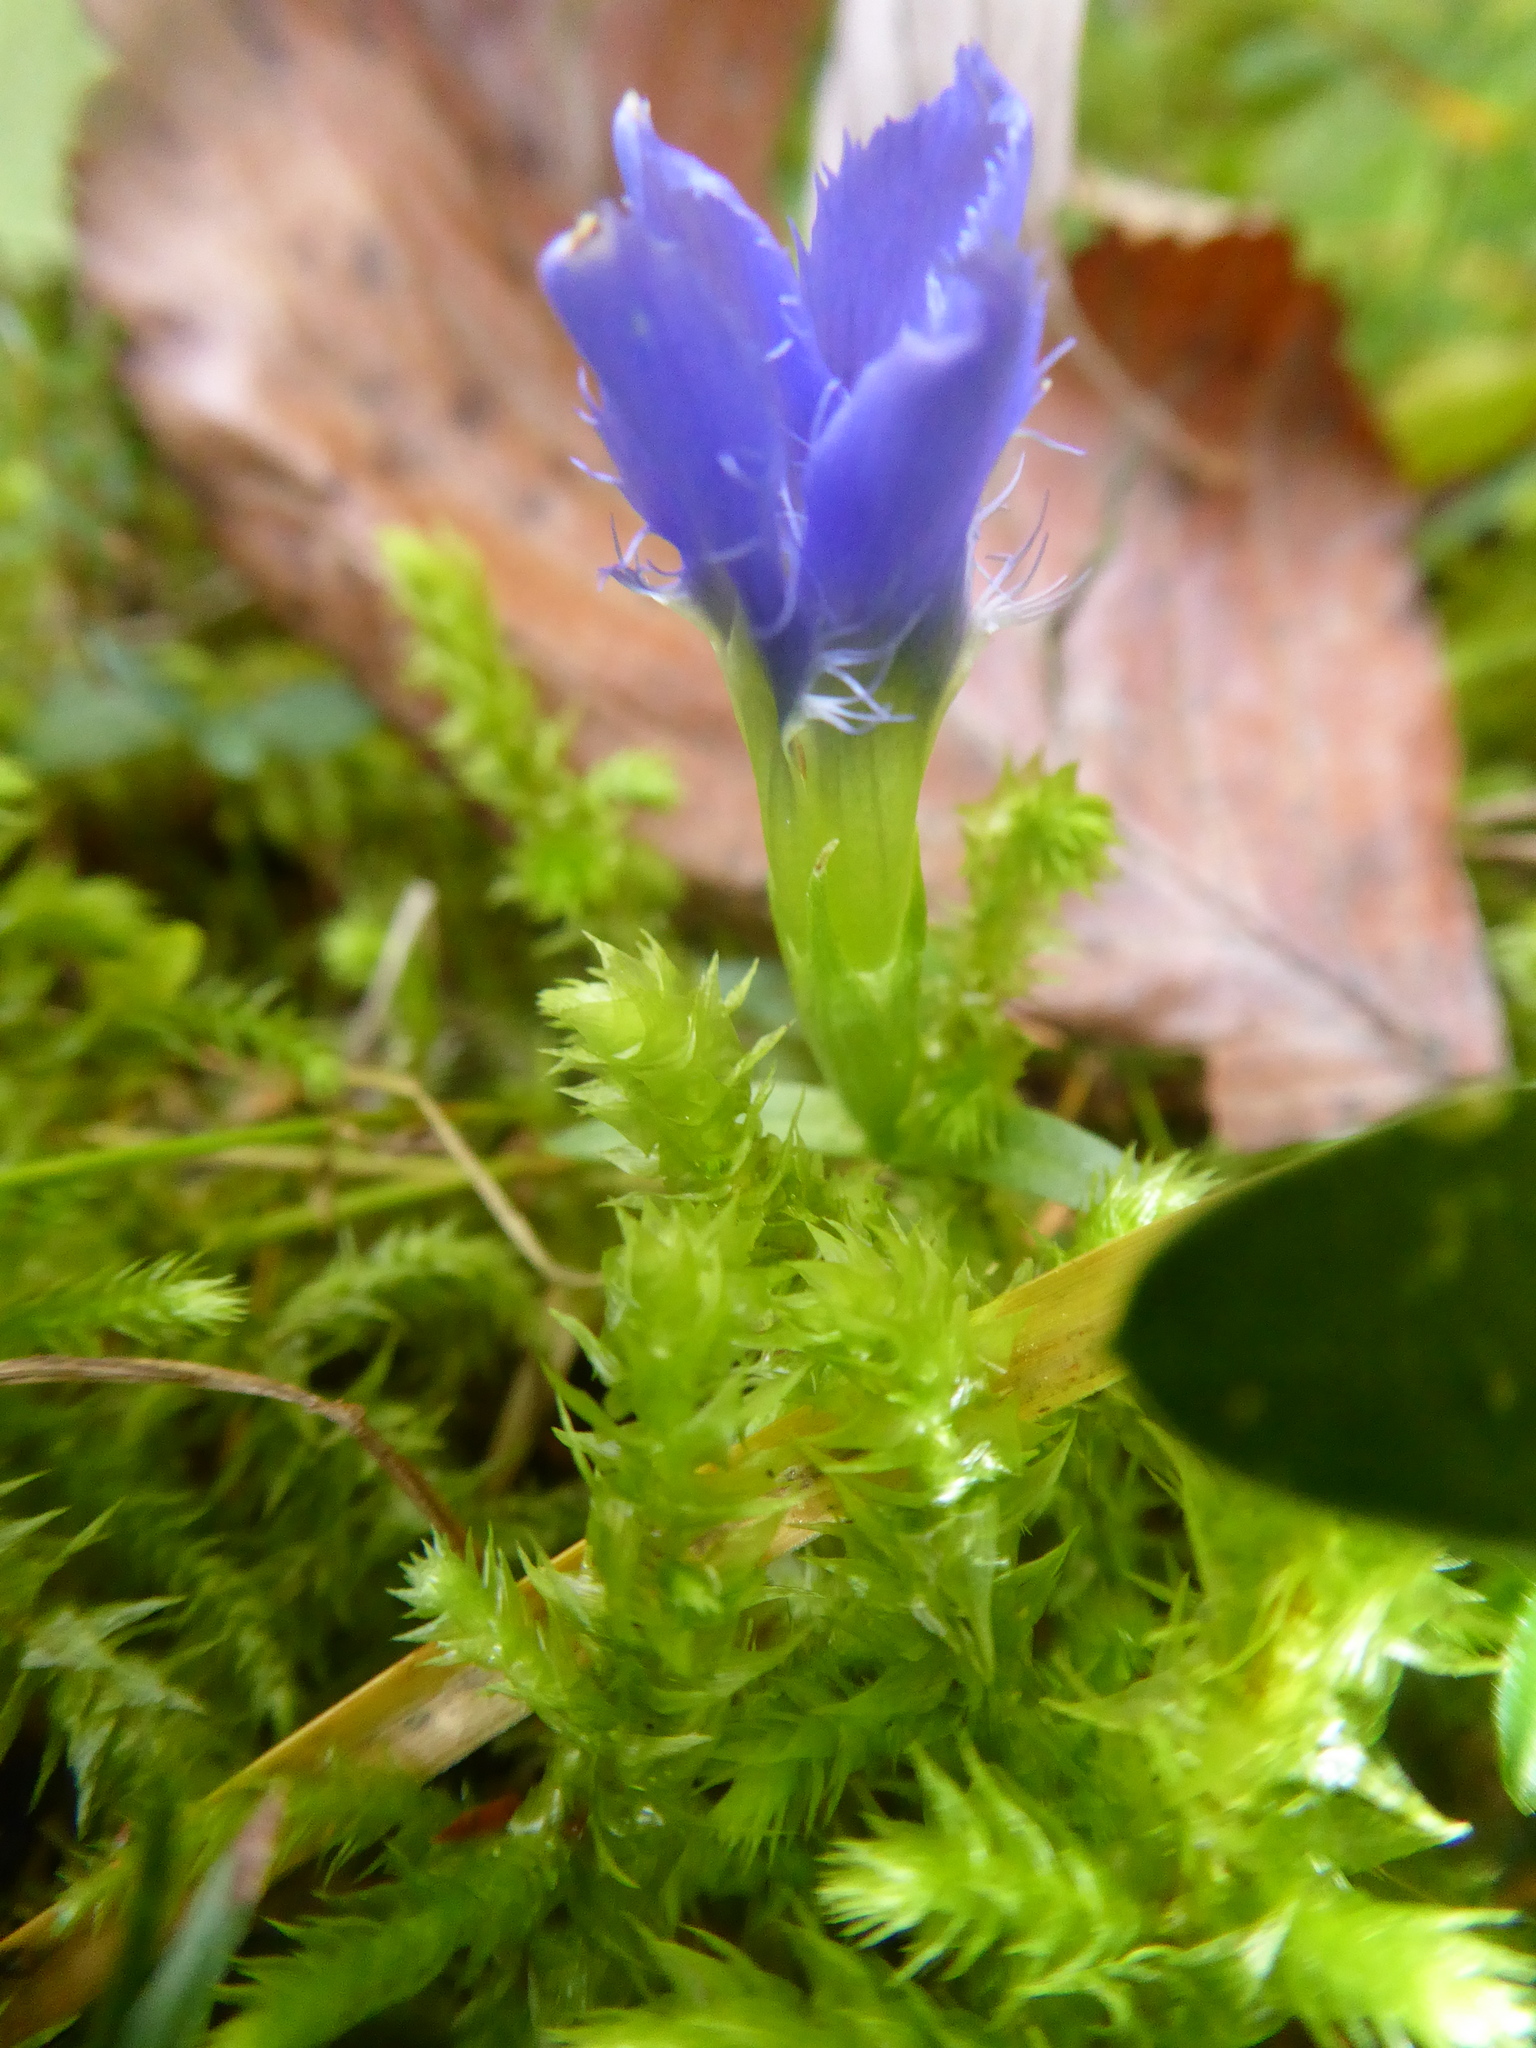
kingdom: Plantae
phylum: Tracheophyta
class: Magnoliopsida
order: Gentianales
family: Gentianaceae
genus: Gentianopsis
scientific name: Gentianopsis ciliata
